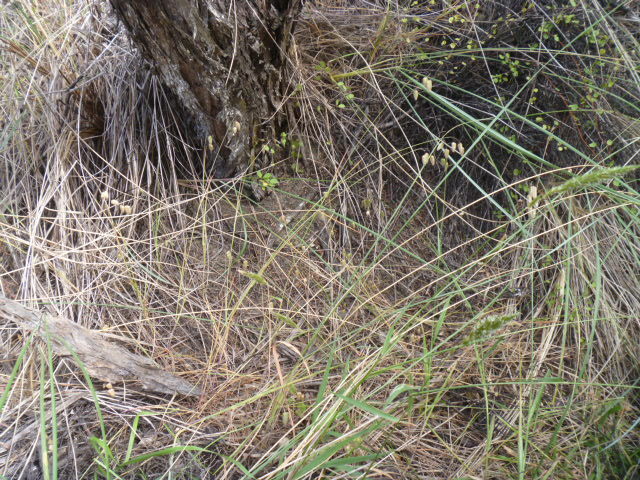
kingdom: Plantae
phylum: Tracheophyta
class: Liliopsida
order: Poales
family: Poaceae
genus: Briza
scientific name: Briza maxima
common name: Big quakinggrass
